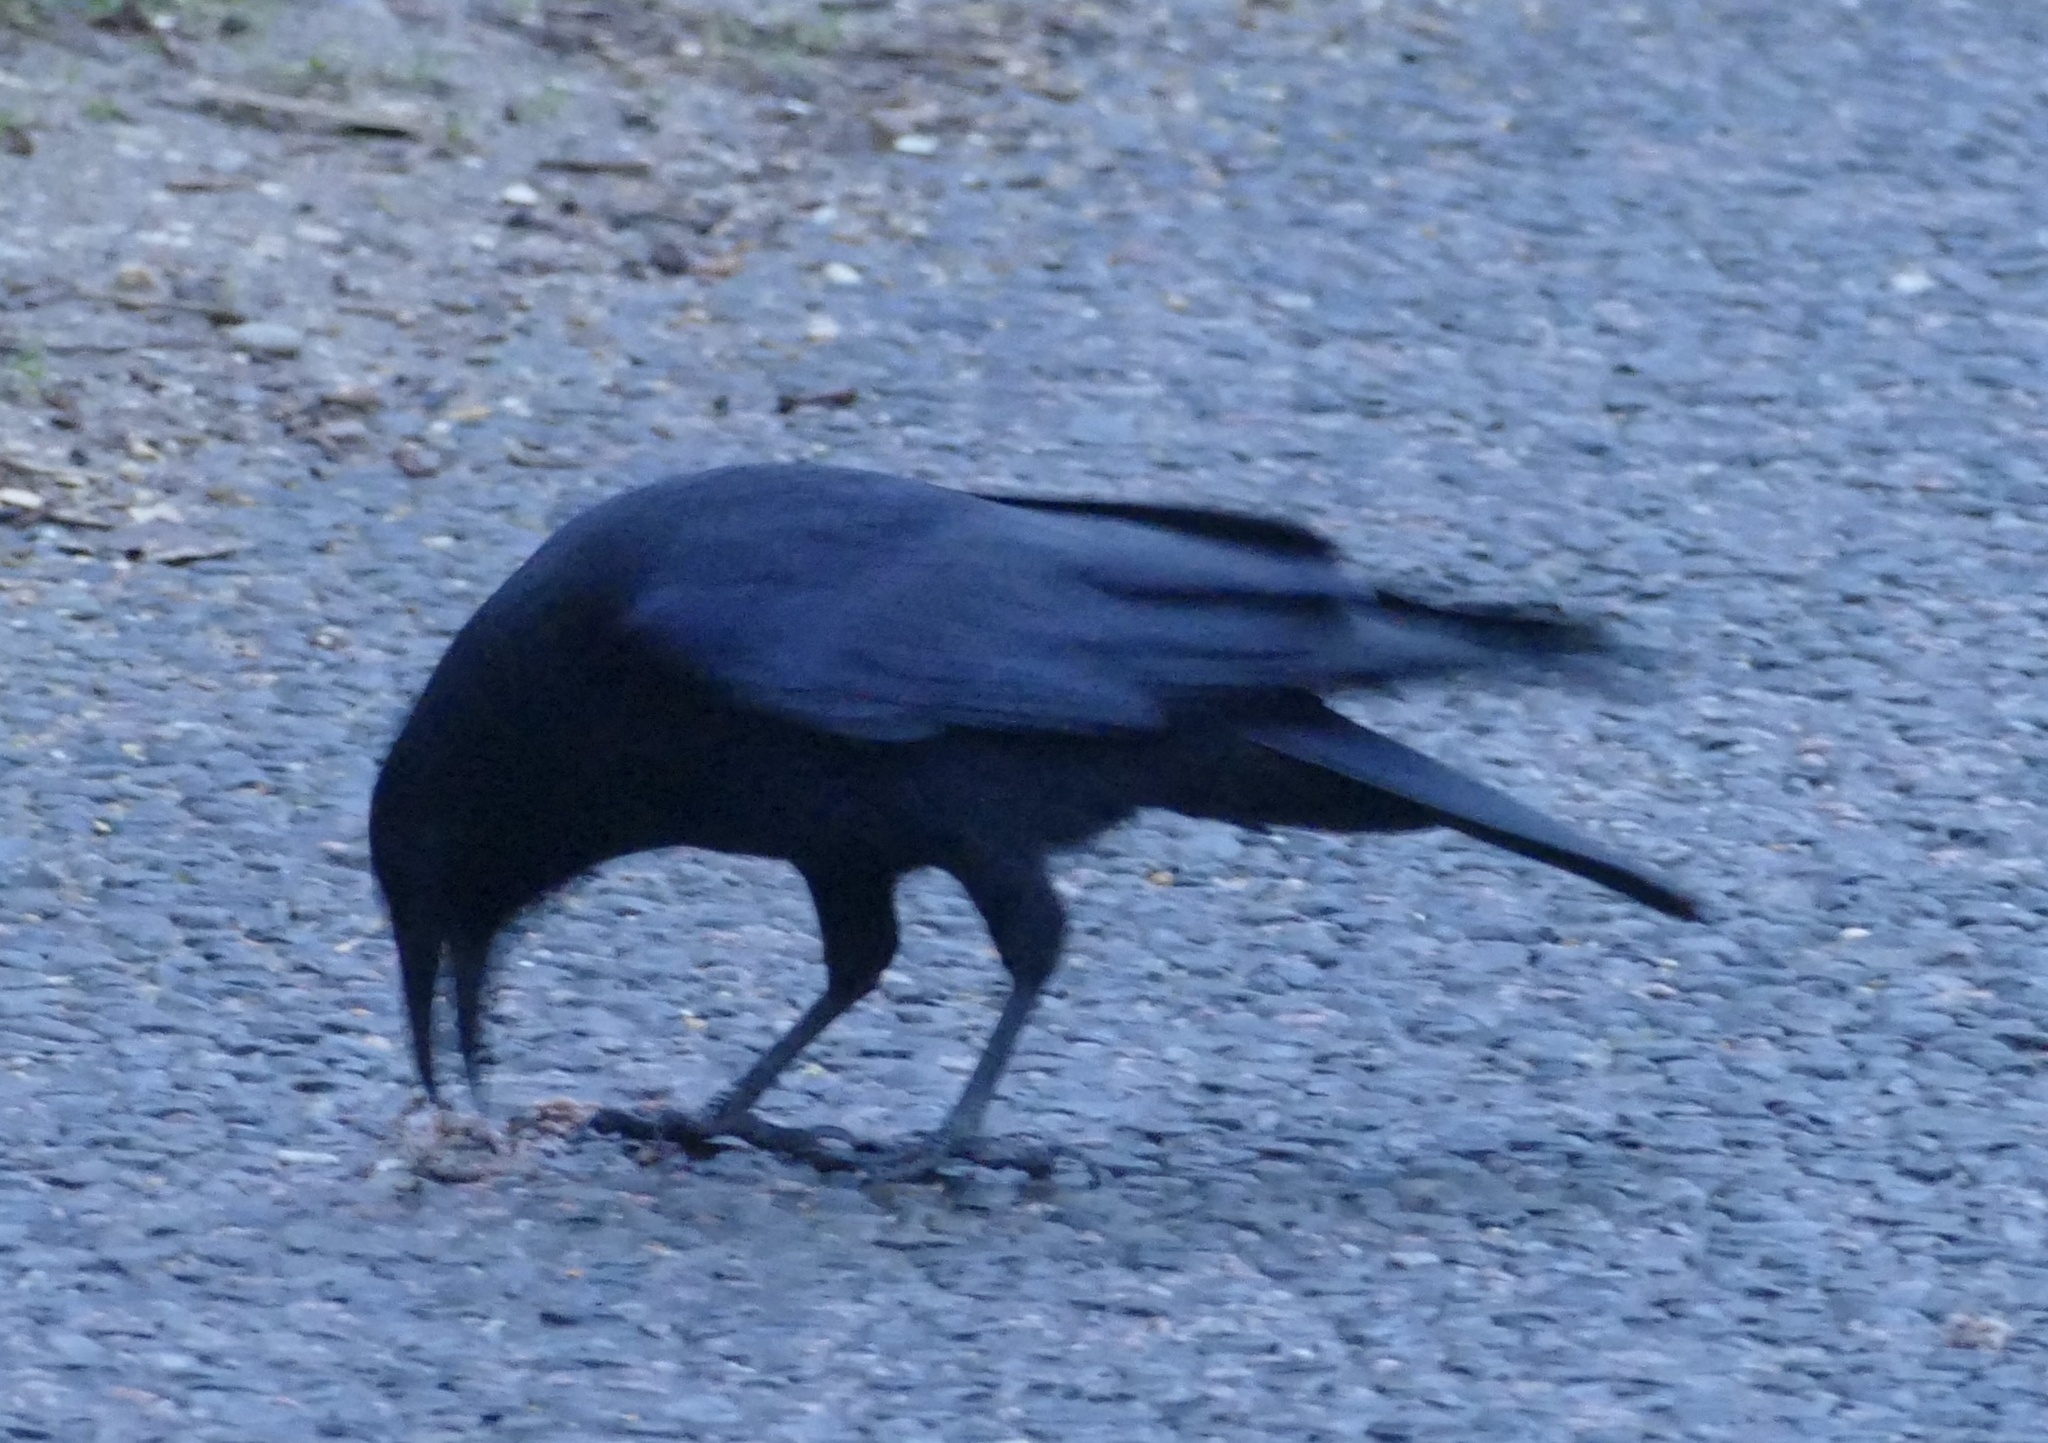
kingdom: Animalia
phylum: Chordata
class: Aves
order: Passeriformes
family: Corvidae
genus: Corvus
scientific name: Corvus corone
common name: Carrion crow
